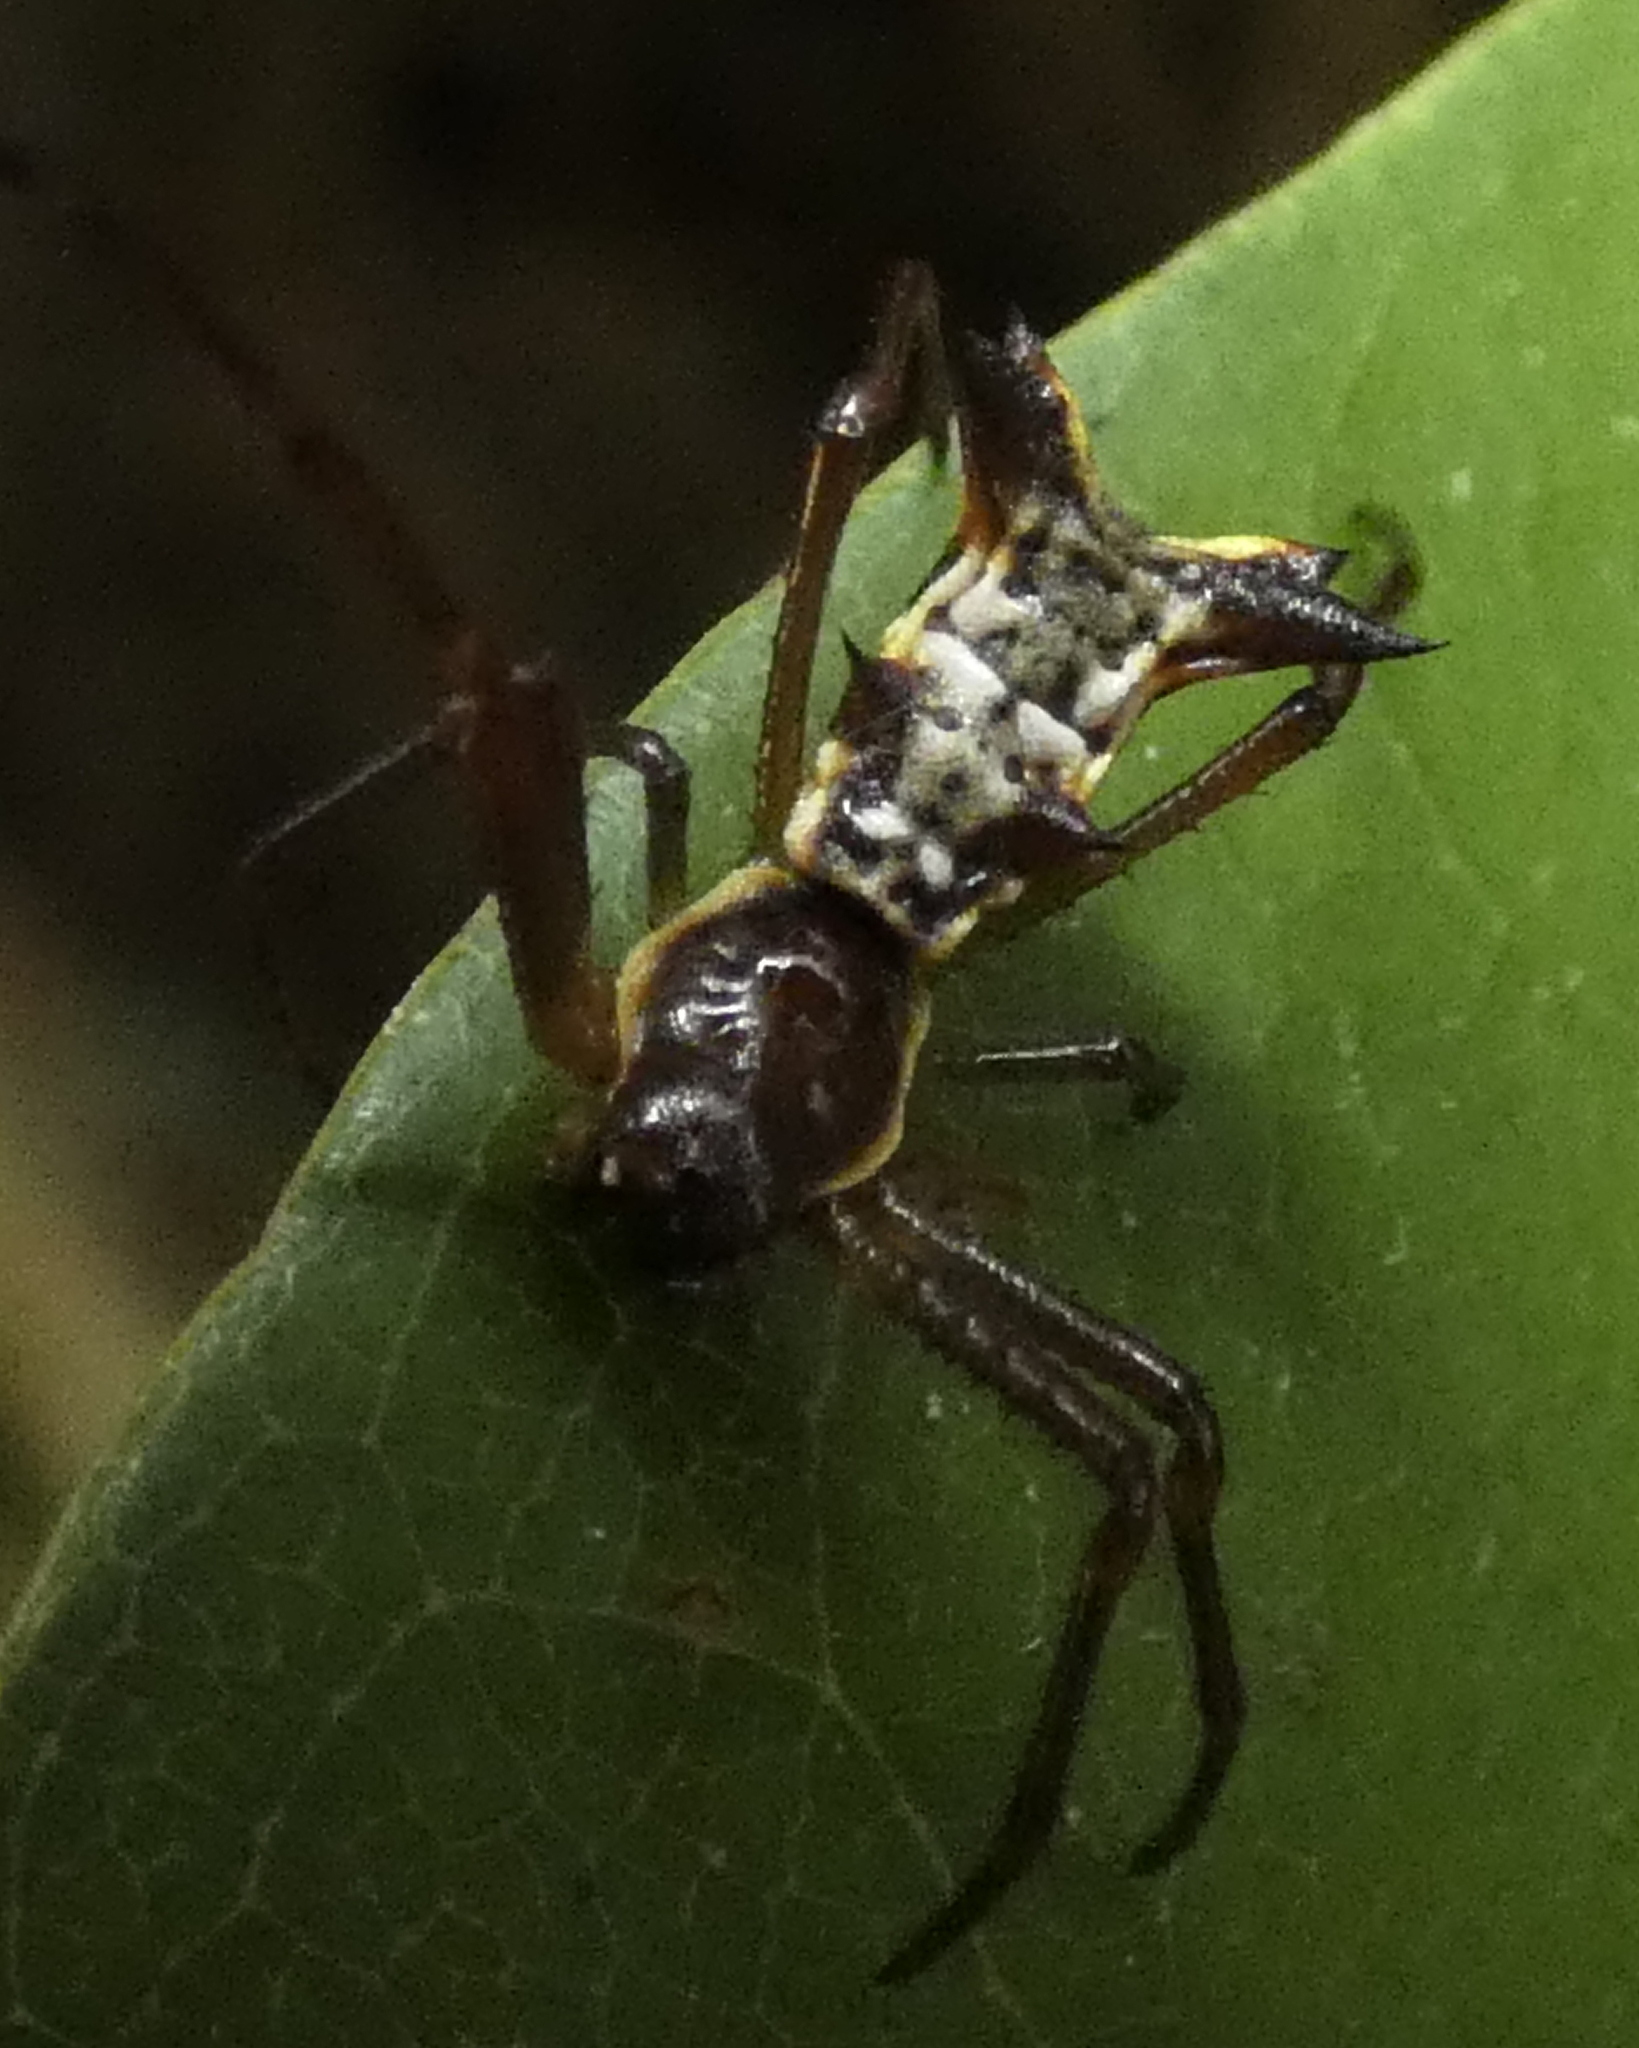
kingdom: Animalia
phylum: Arthropoda
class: Arachnida
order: Araneae
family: Araneidae
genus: Micrathena
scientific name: Micrathena fissispina
